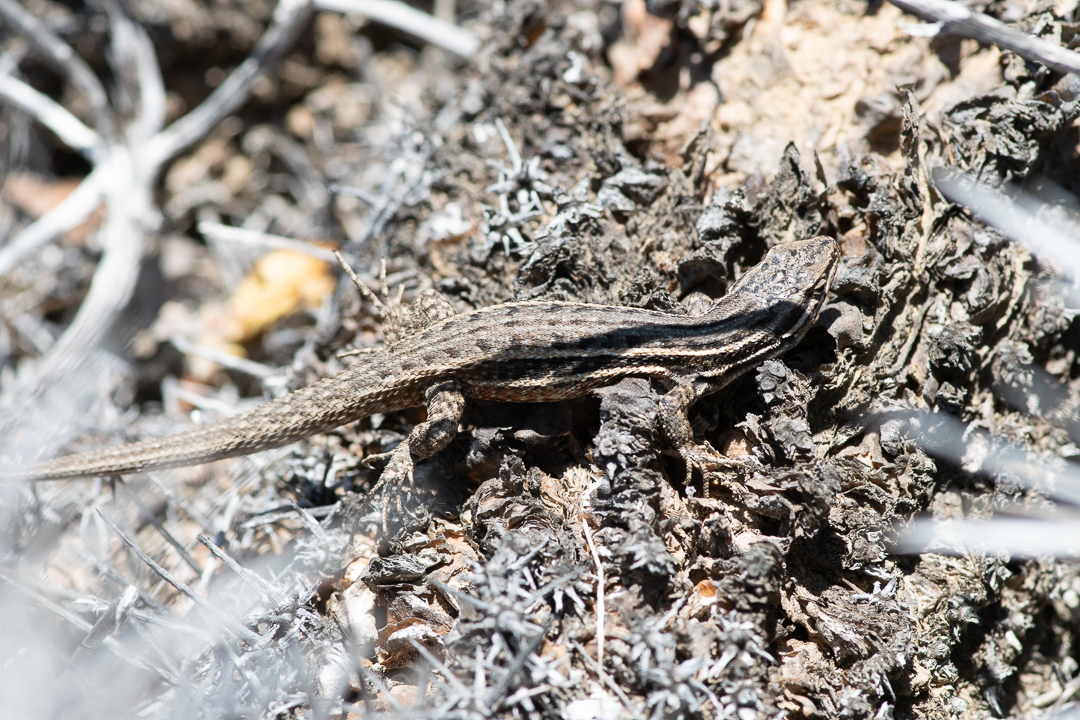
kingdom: Animalia
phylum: Chordata
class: Squamata
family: Liolaemidae
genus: Liolaemus
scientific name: Liolaemus fuscus
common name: Brown tree iguana
